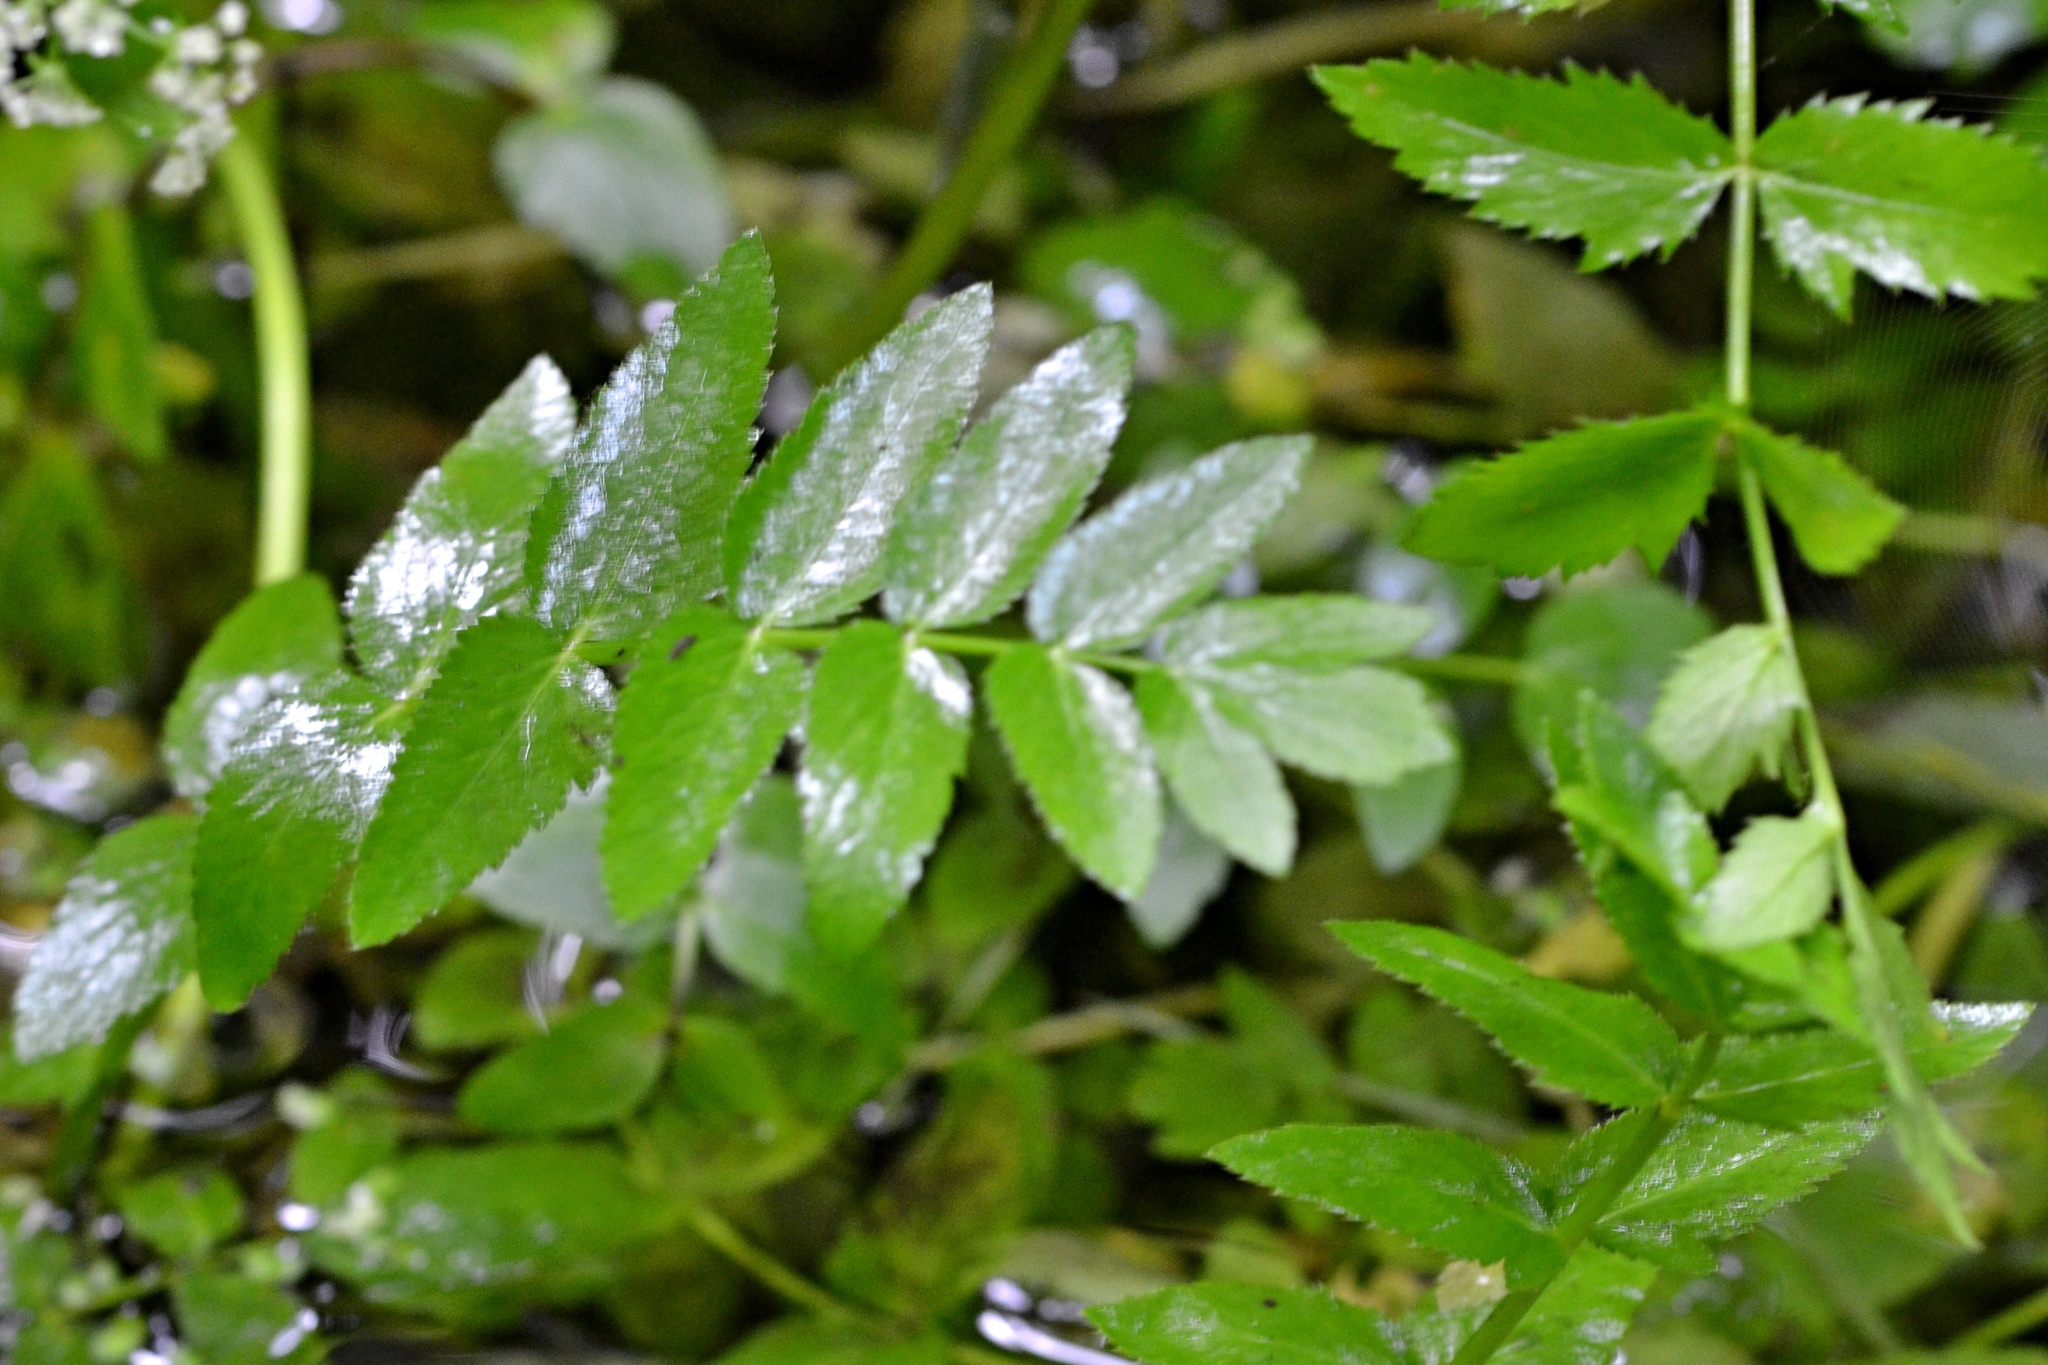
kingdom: Plantae
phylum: Tracheophyta
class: Magnoliopsida
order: Apiales
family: Apiaceae
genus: Berula
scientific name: Berula erecta
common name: Lesser water-parsnip
